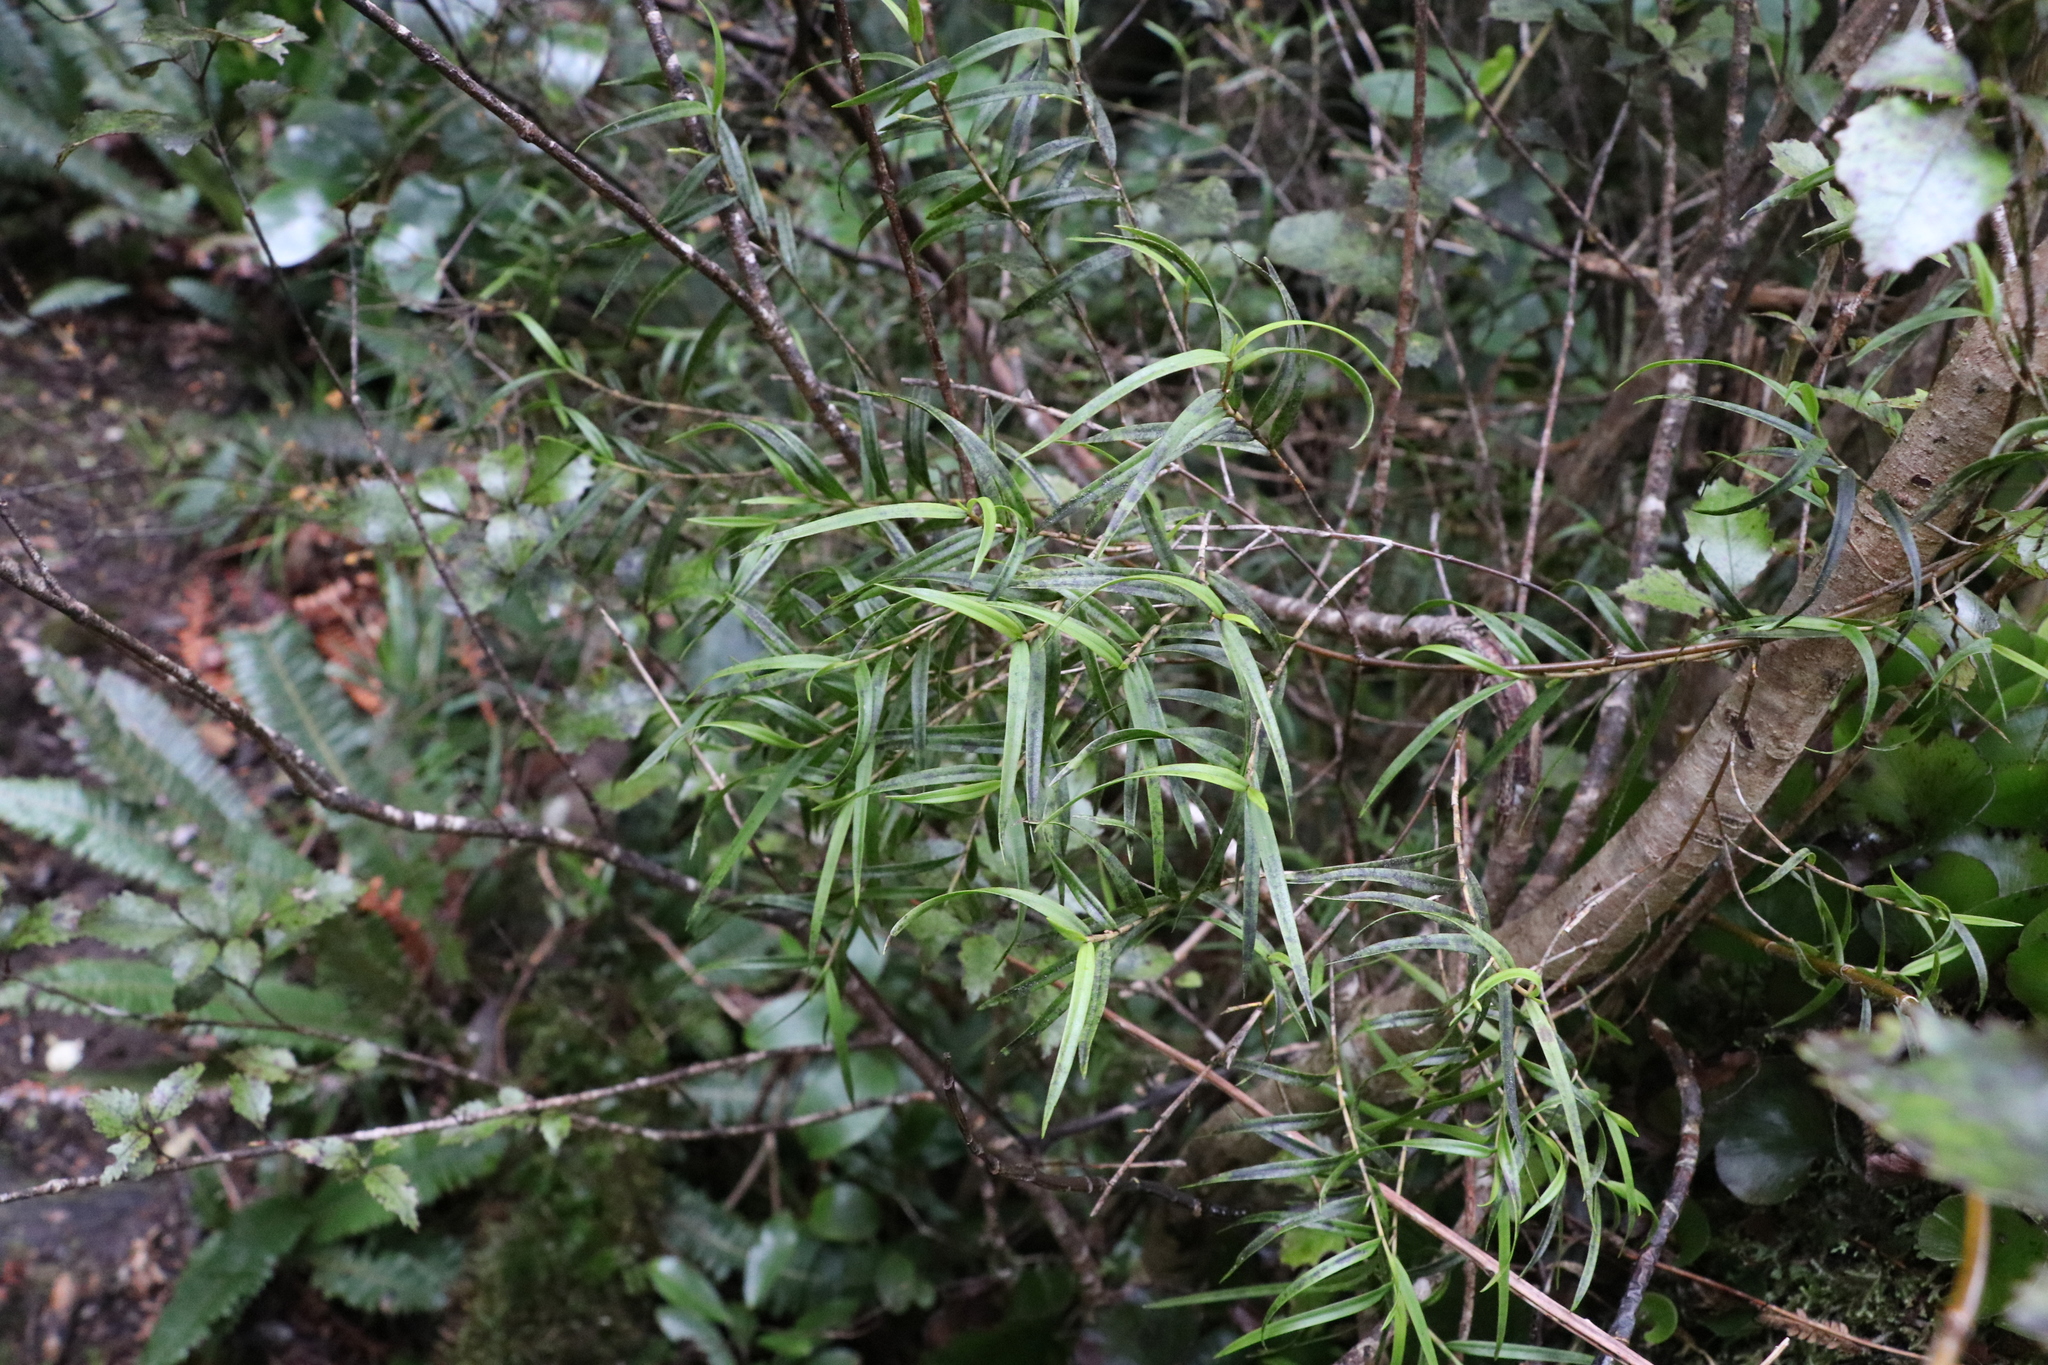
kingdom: Plantae
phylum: Tracheophyta
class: Liliopsida
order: Asparagales
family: Orchidaceae
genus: Dendrobium
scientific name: Dendrobium cunninghamii
